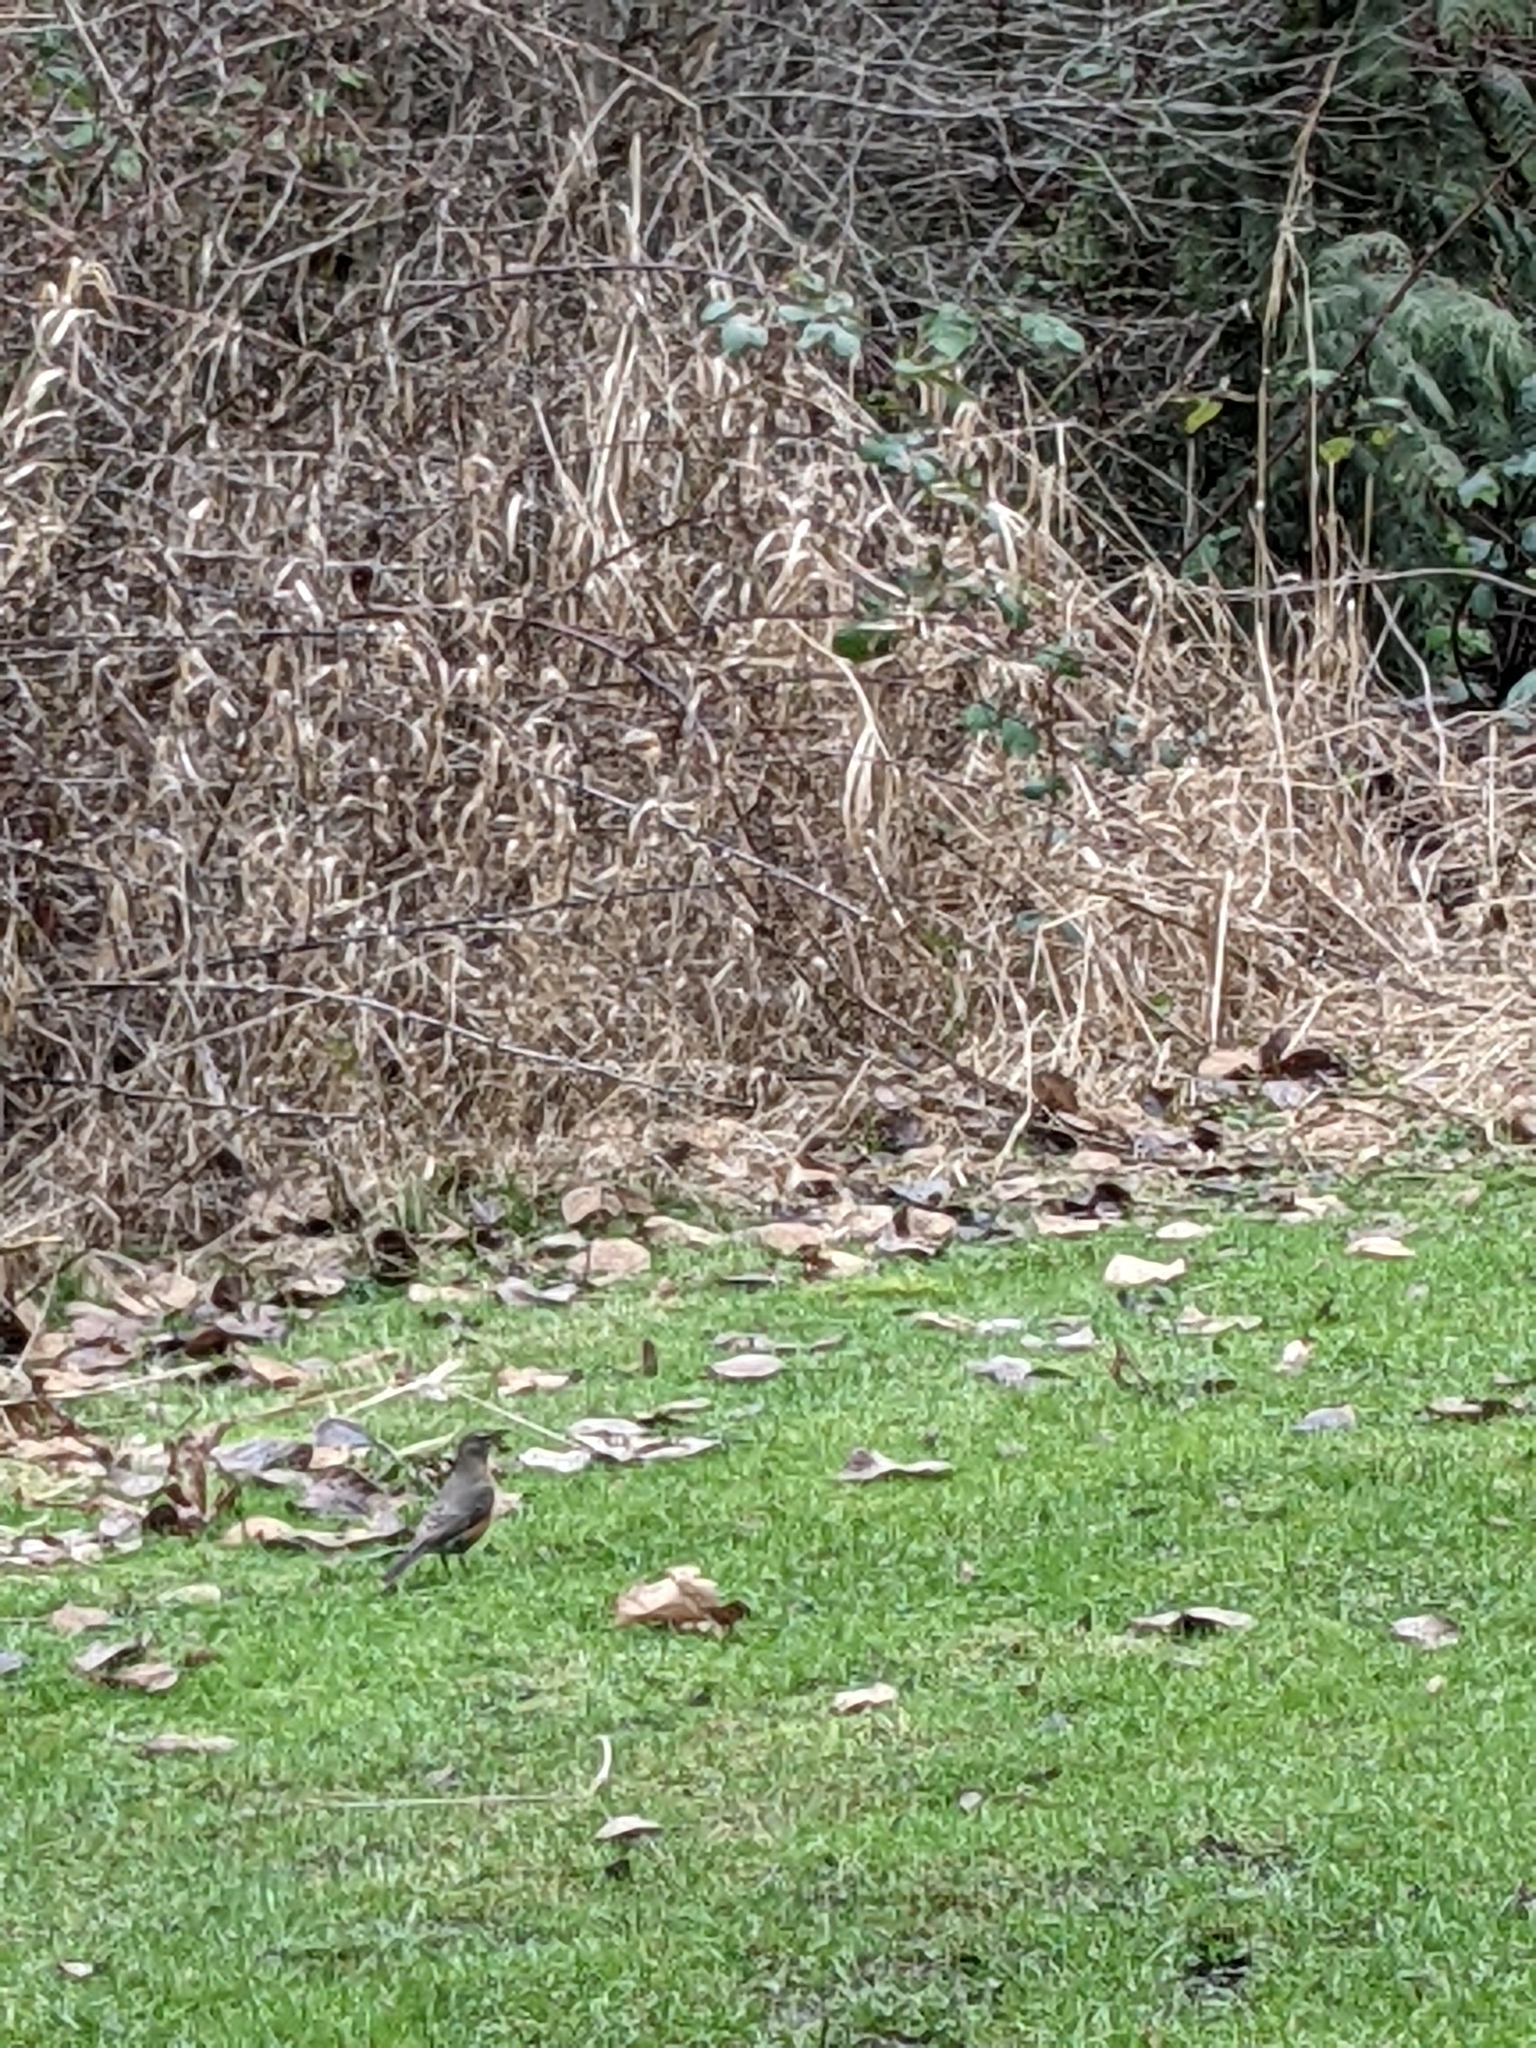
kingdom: Animalia
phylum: Chordata
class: Aves
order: Passeriformes
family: Turdidae
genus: Turdus
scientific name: Turdus migratorius
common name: American robin
